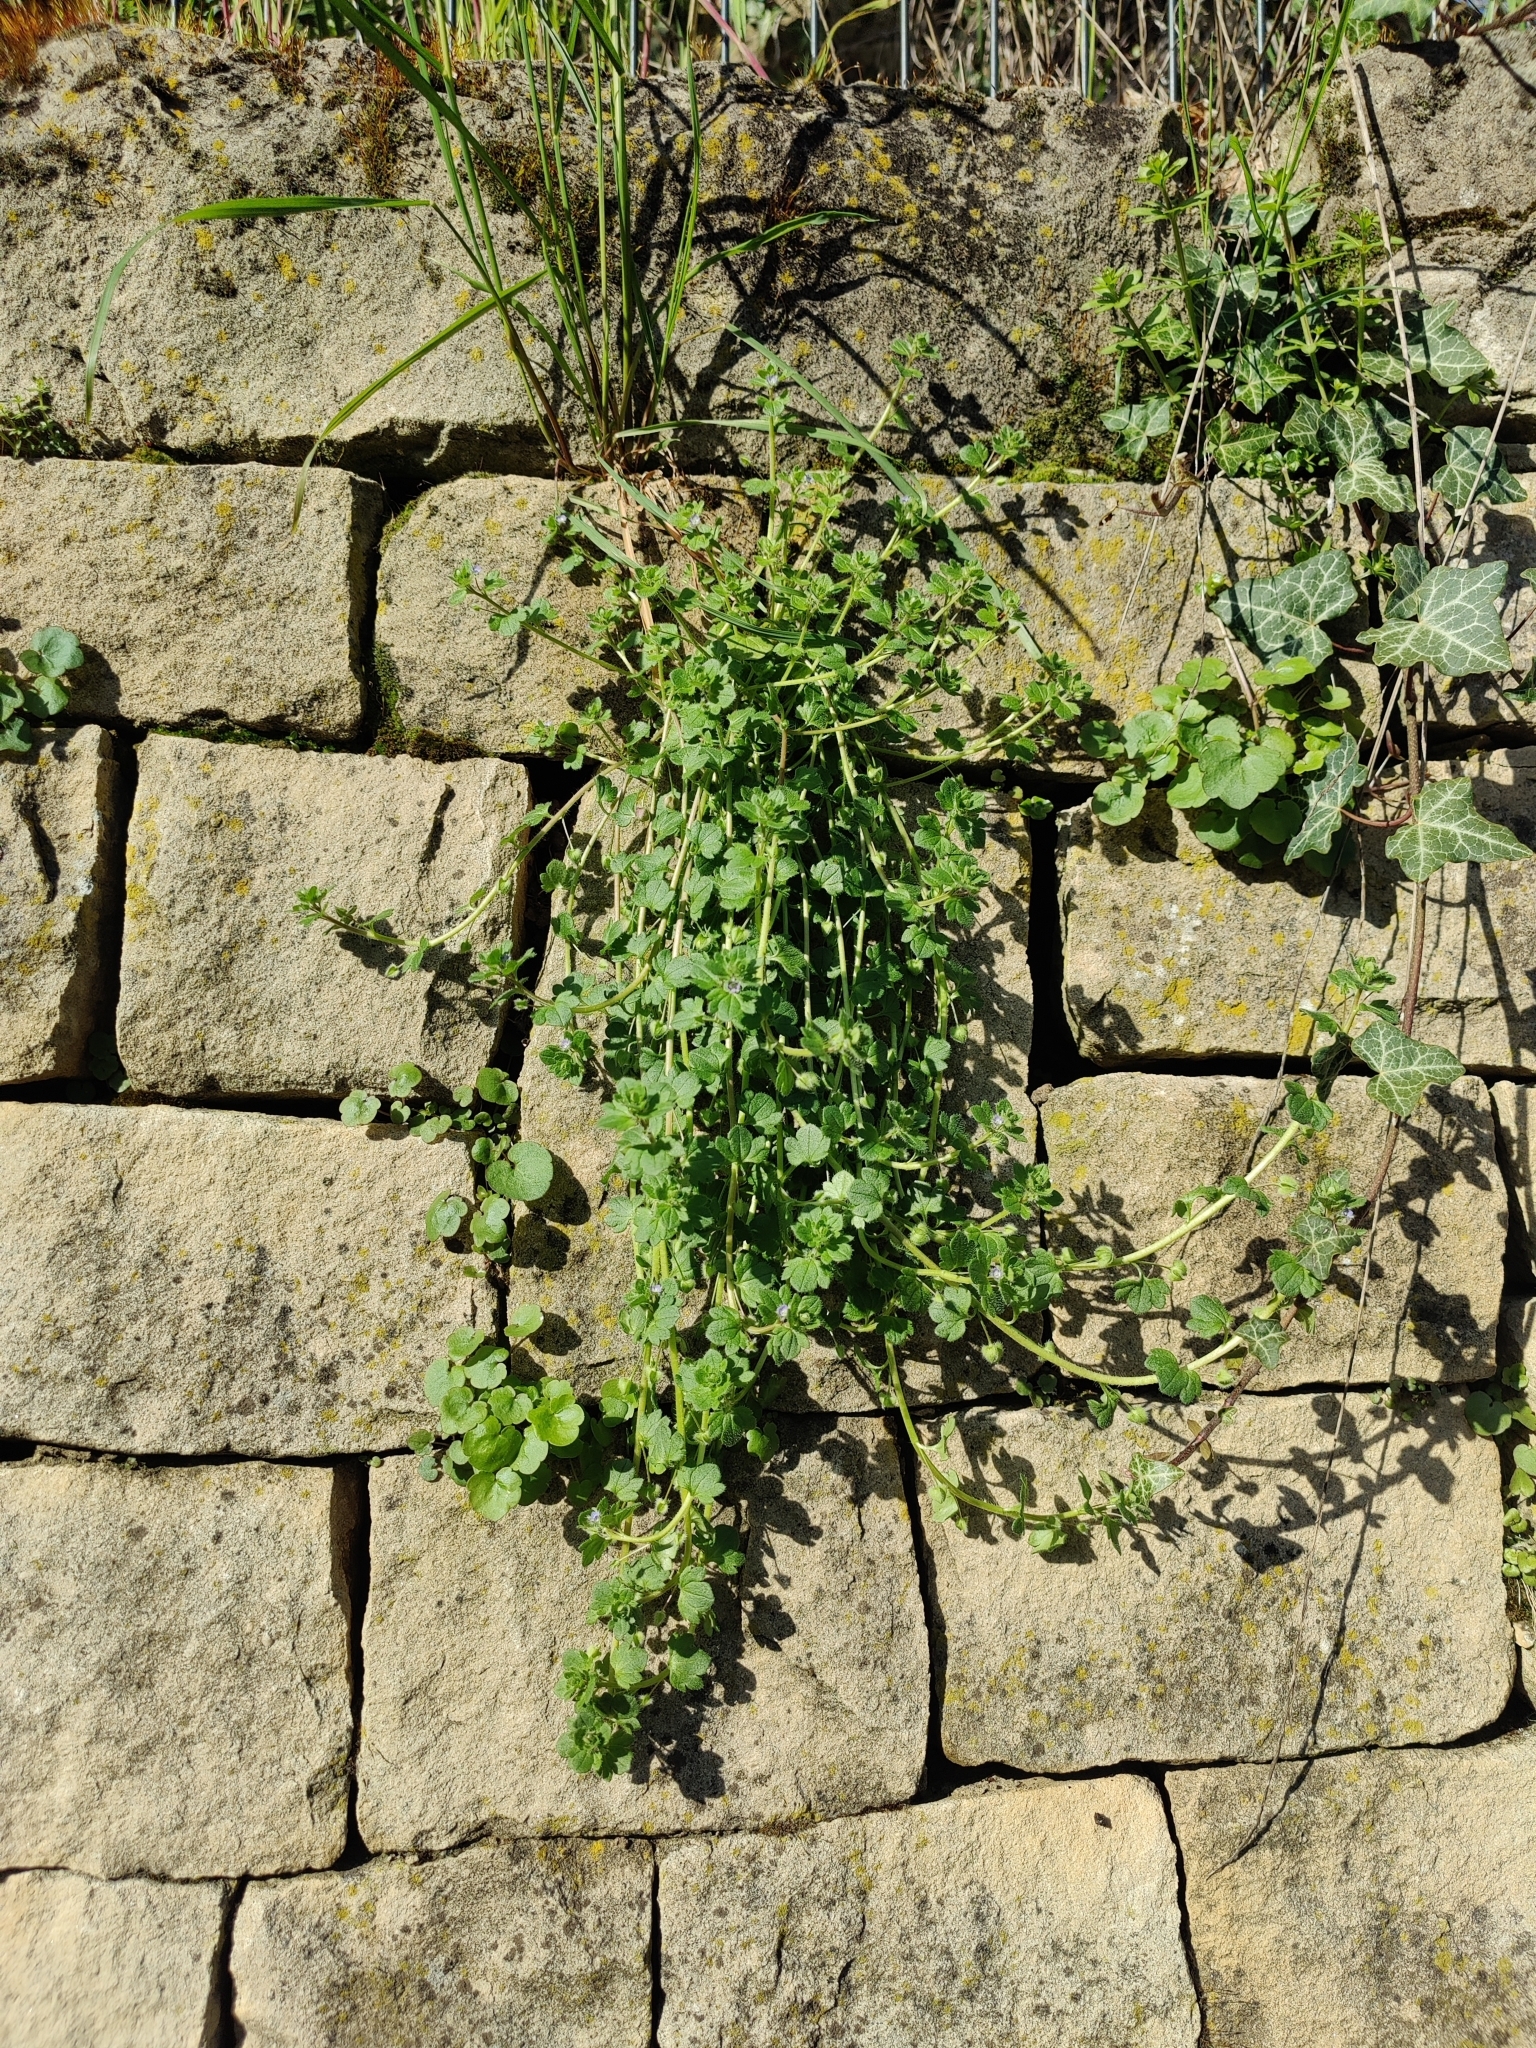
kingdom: Plantae
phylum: Tracheophyta
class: Magnoliopsida
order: Lamiales
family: Plantaginaceae
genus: Veronica
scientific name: Veronica hederifolia
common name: Ivy-leaved speedwell
